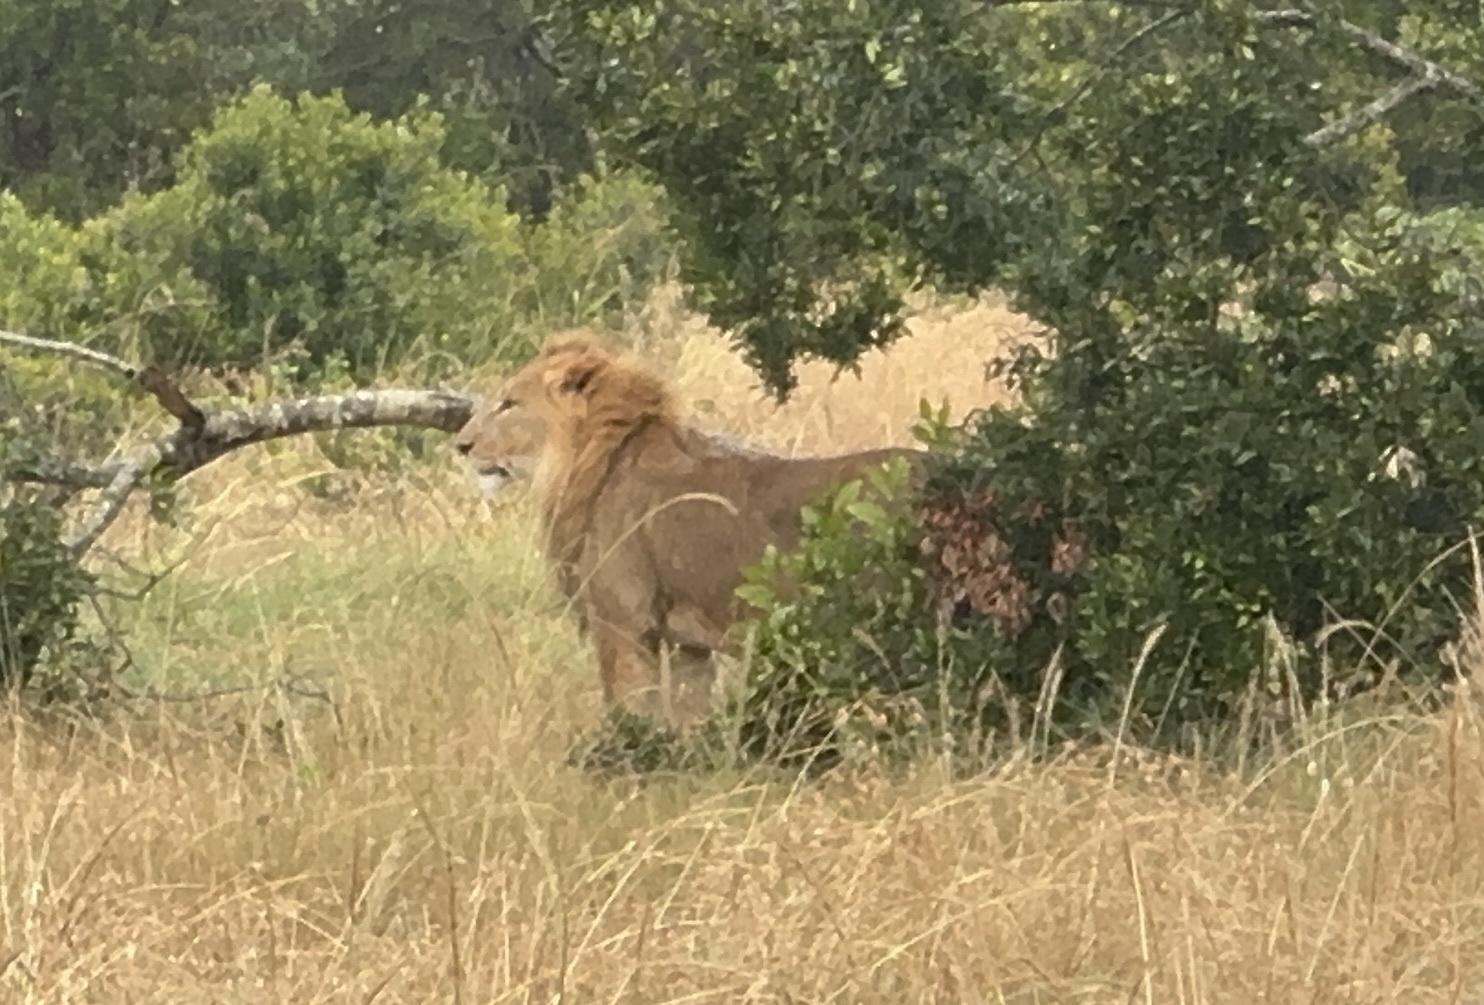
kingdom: Animalia
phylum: Chordata
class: Mammalia
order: Carnivora
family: Felidae
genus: Panthera
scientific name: Panthera leo
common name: Lion
